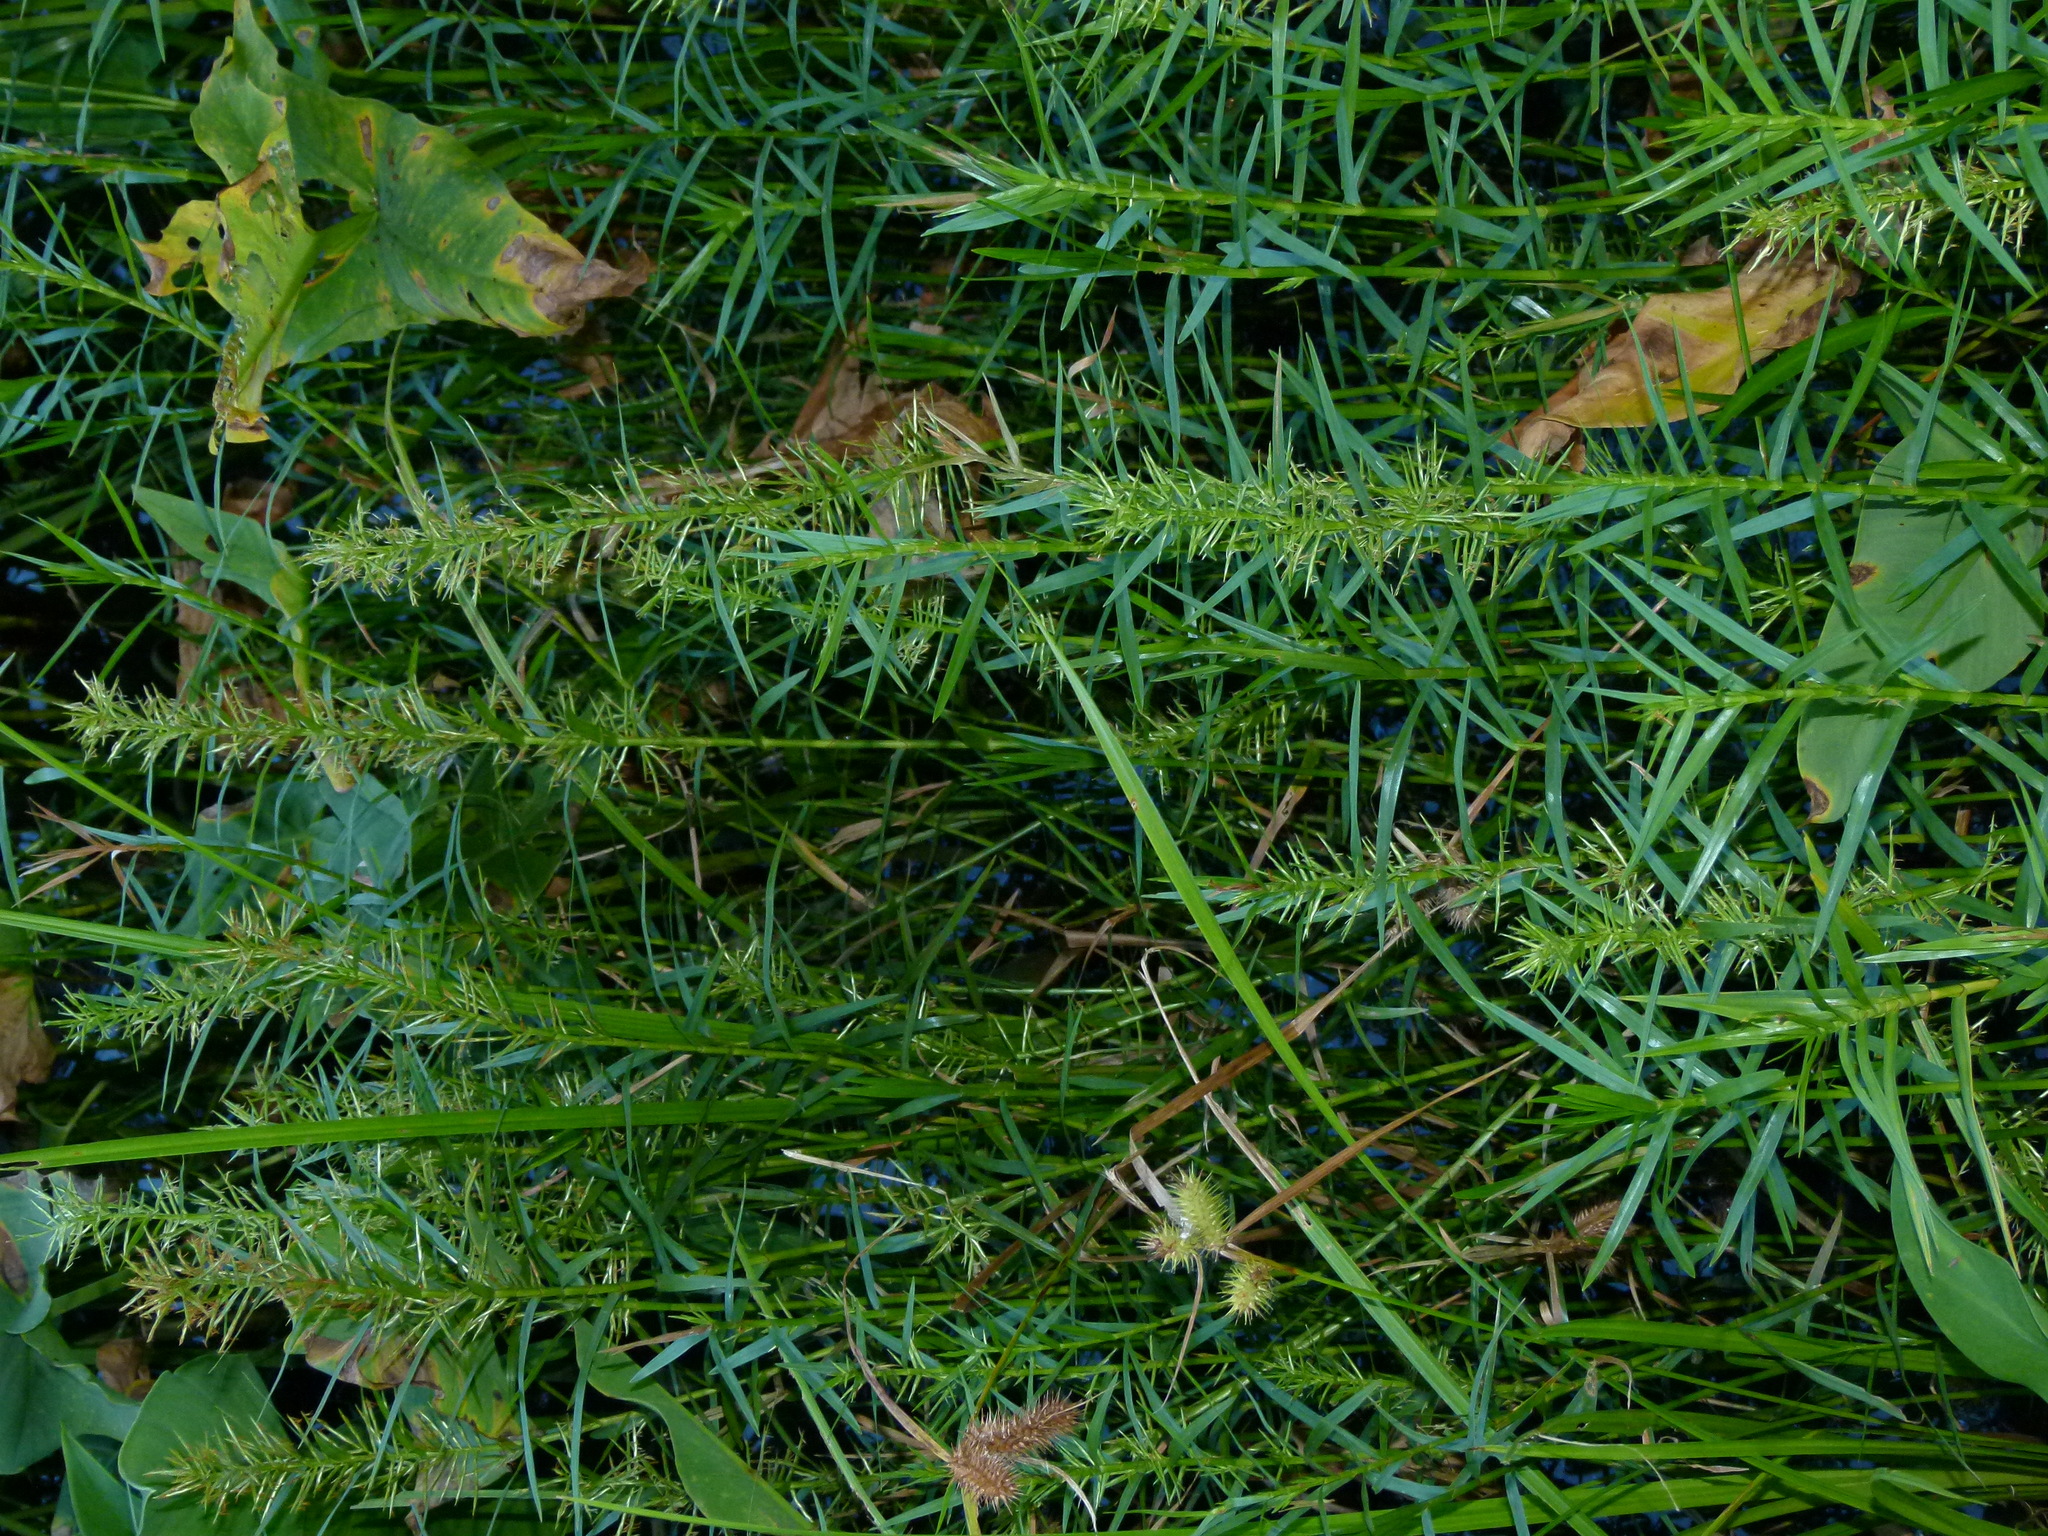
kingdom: Plantae
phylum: Tracheophyta
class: Liliopsida
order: Poales
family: Cyperaceae
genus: Dulichium
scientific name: Dulichium arundinaceum
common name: Three-way sedge
